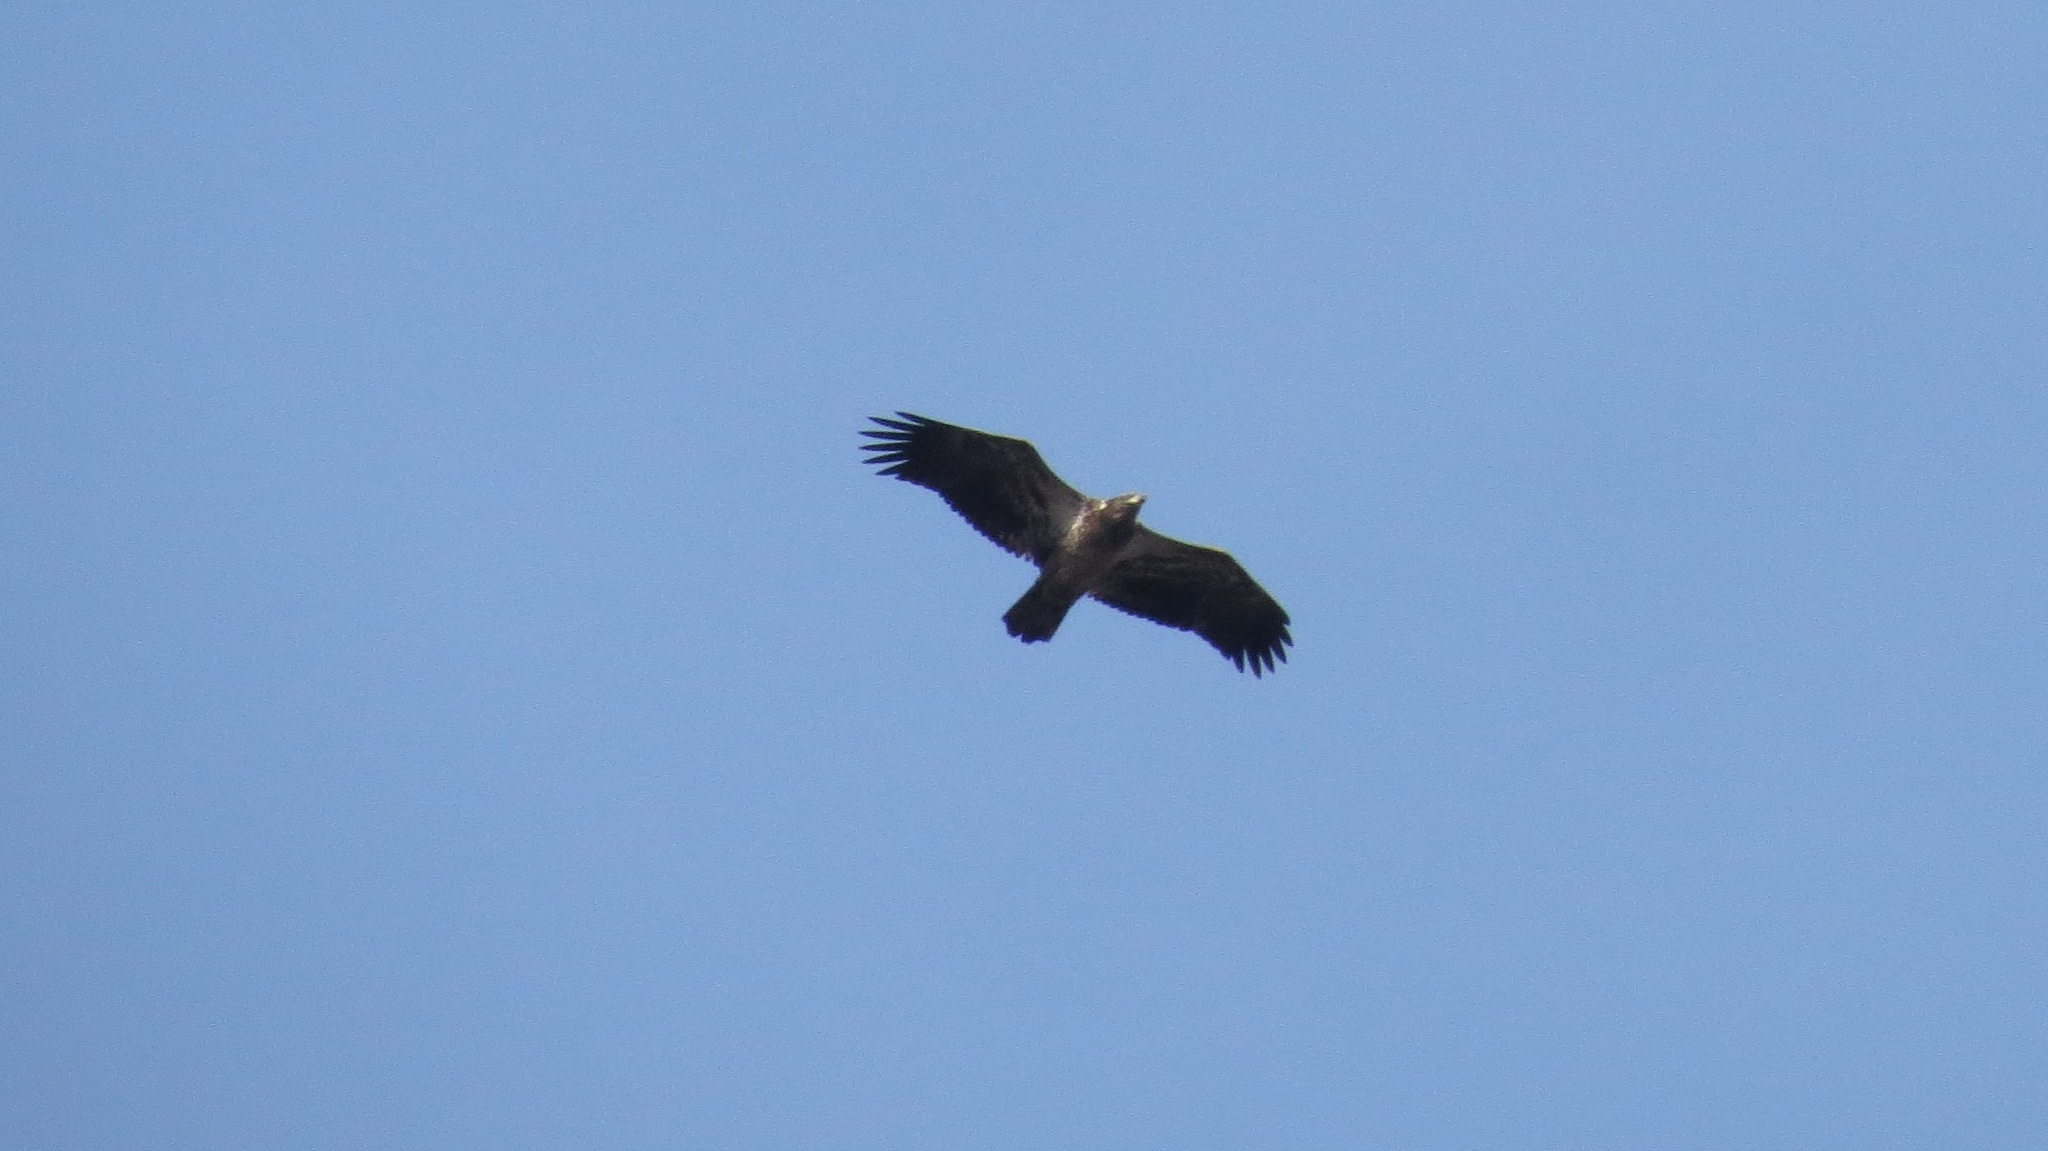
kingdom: Animalia
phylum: Chordata
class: Aves
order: Accipitriformes
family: Accipitridae
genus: Haliaeetus
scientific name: Haliaeetus leucocephalus
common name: Bald eagle
